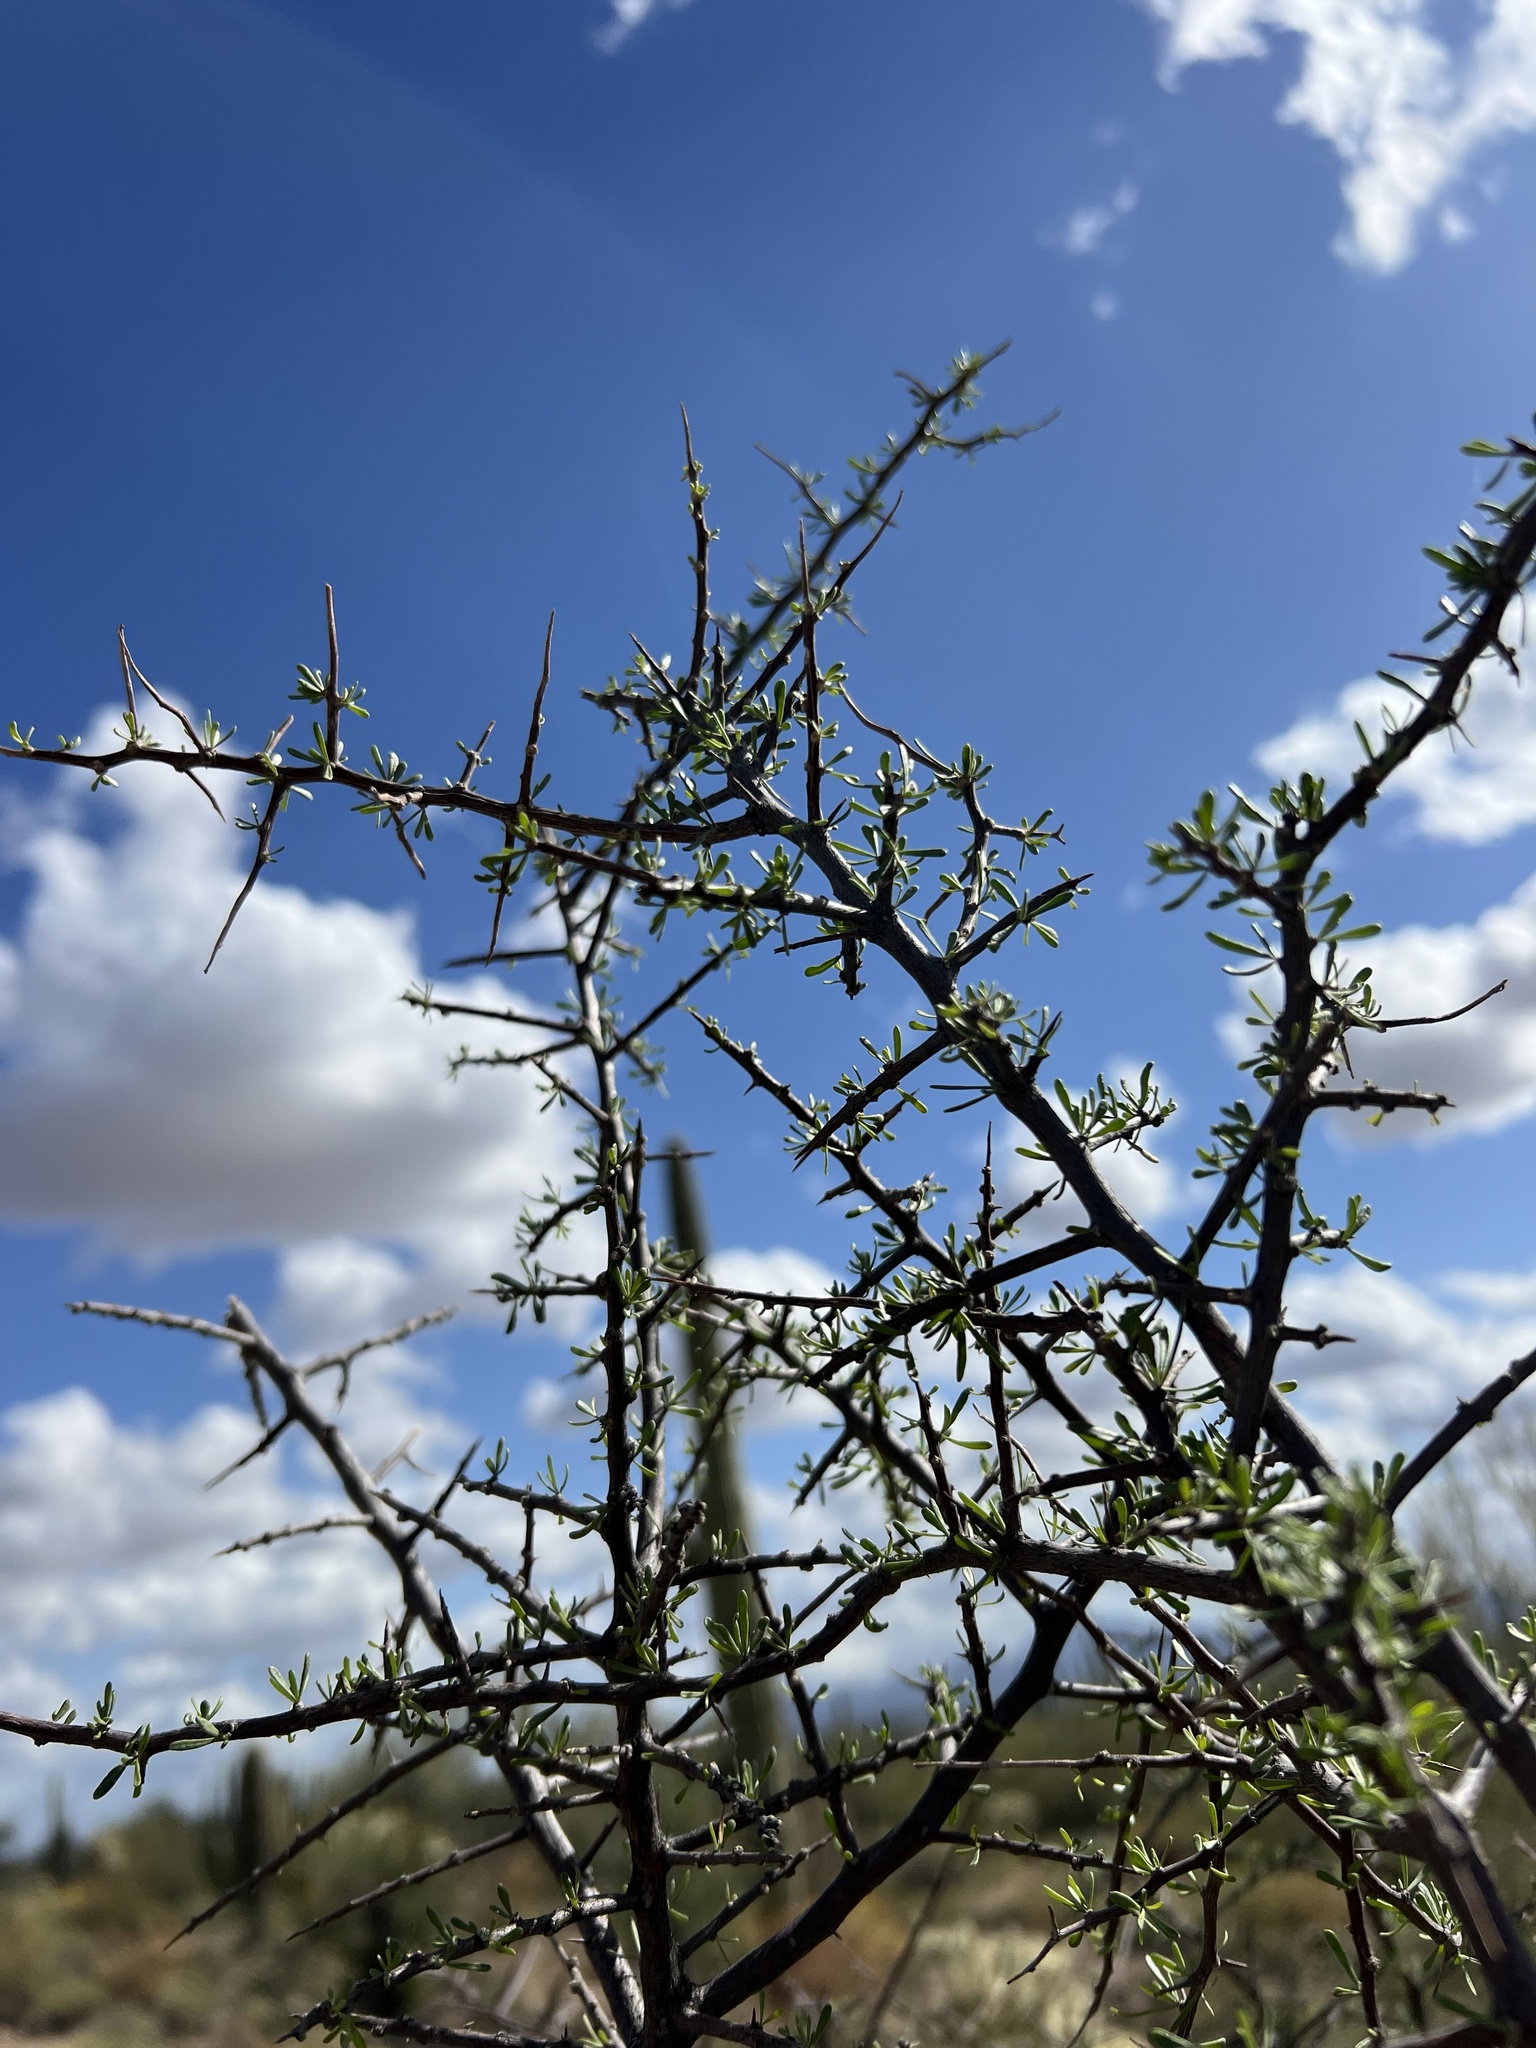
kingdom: Plantae
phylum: Tracheophyta
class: Magnoliopsida
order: Solanales
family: Solanaceae
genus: Lycium
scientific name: Lycium berlandieri
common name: Berlandier wolfberry
